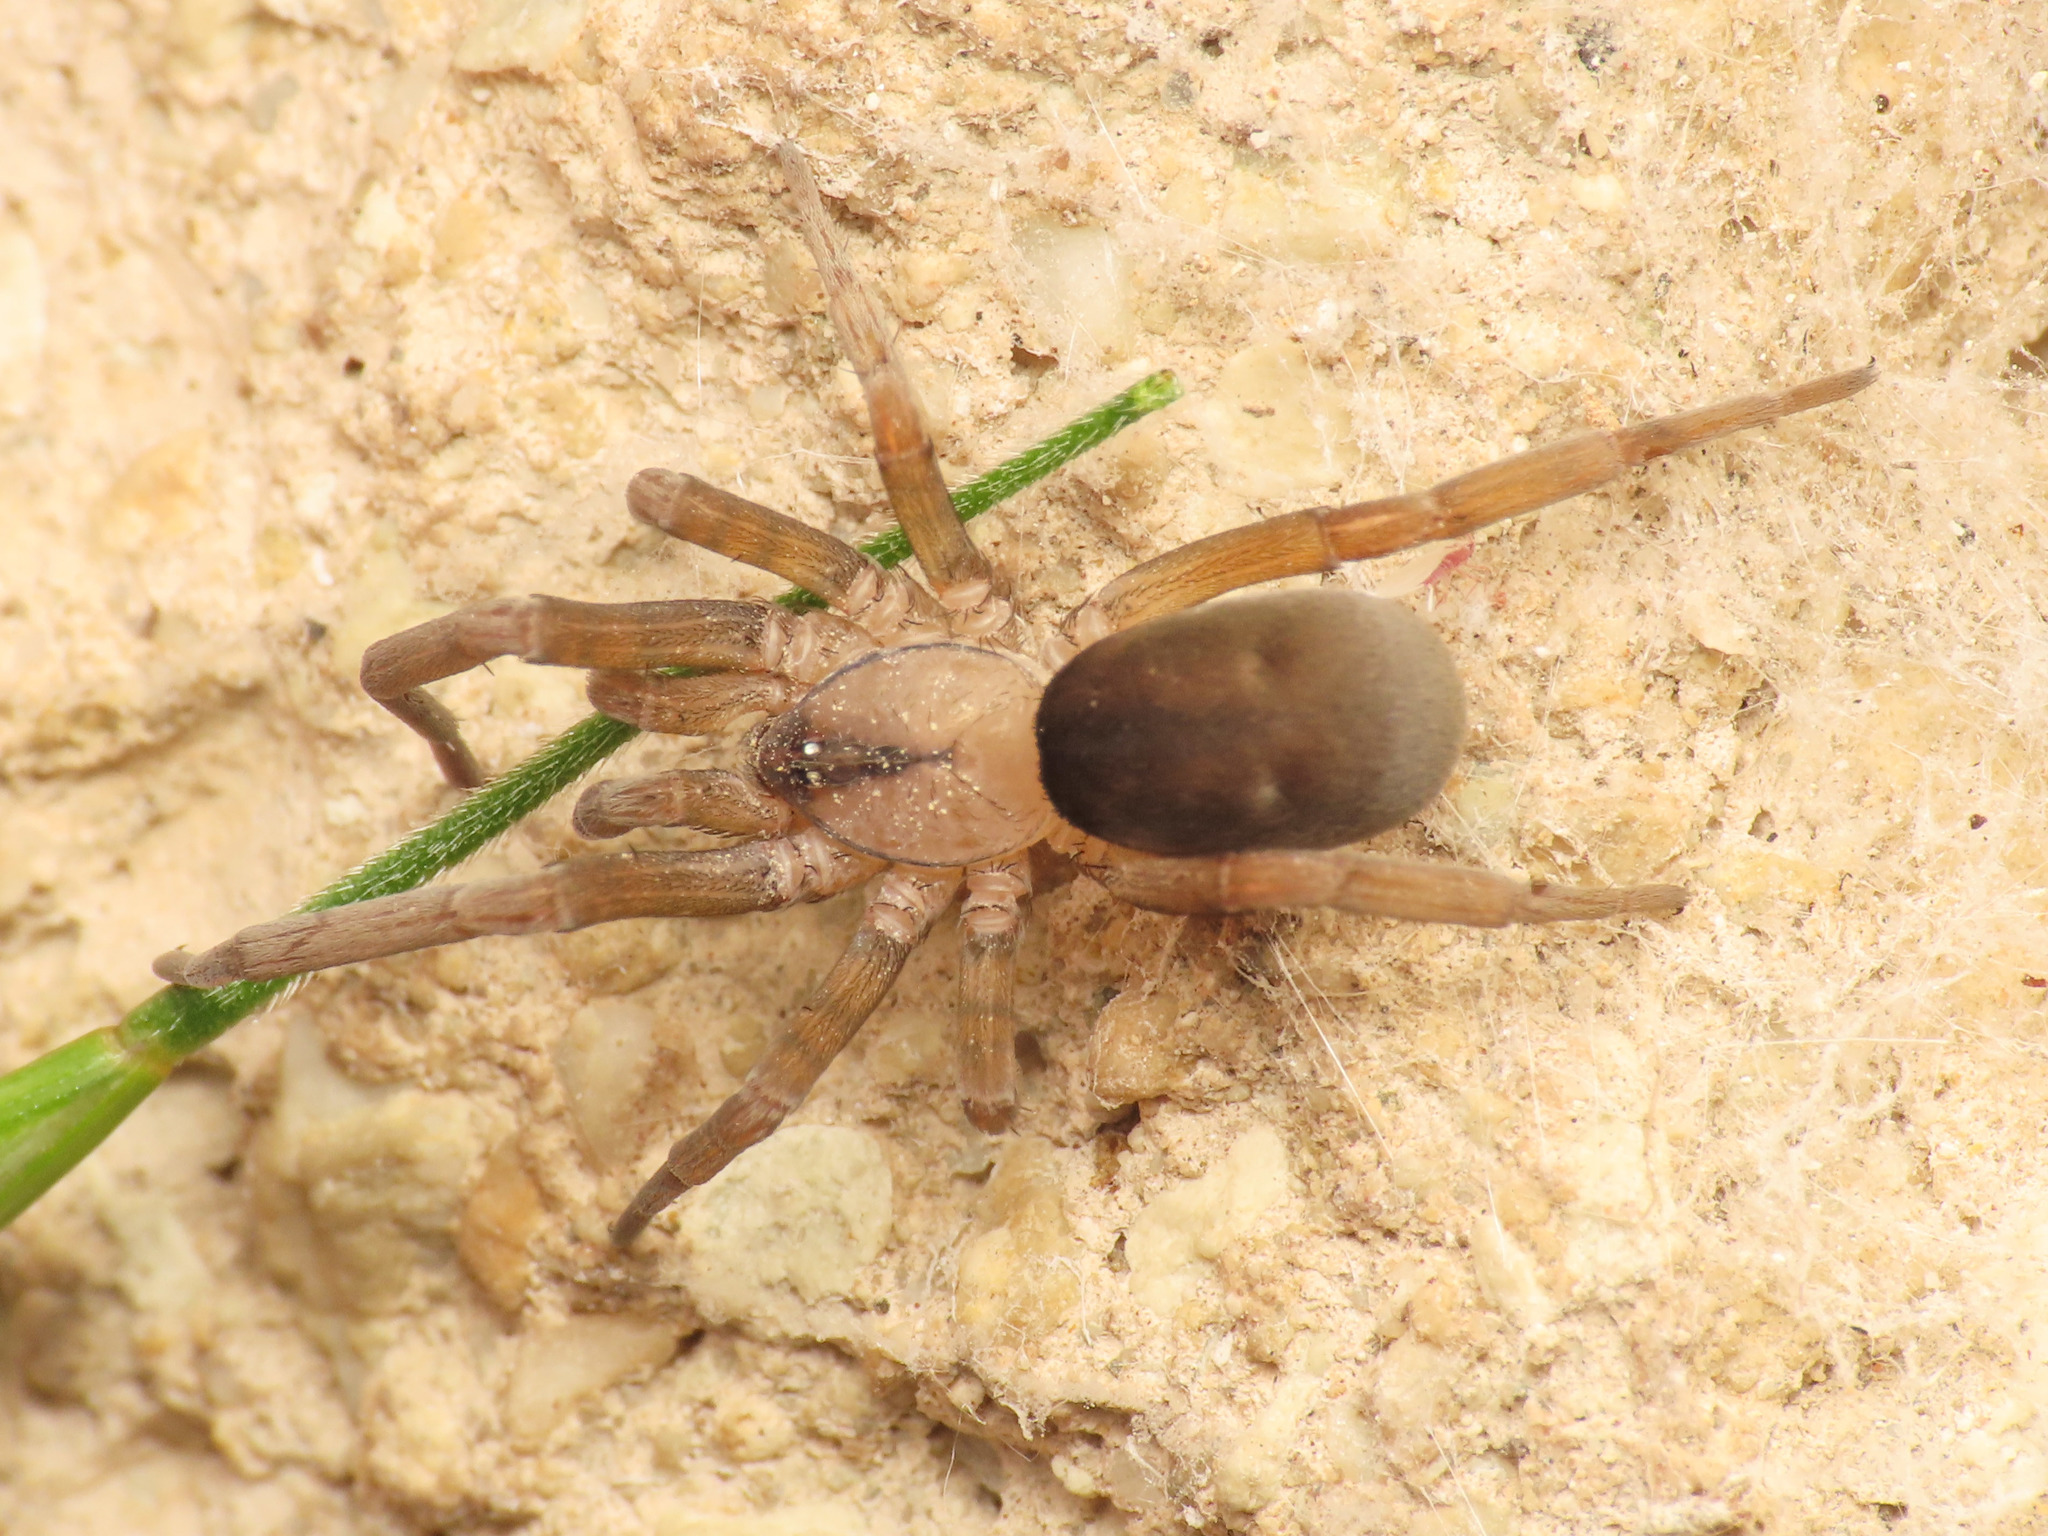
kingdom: Animalia
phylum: Arthropoda
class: Arachnida
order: Araneae
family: Filistatidae
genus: Filistata
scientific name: Filistata insidiatrix
